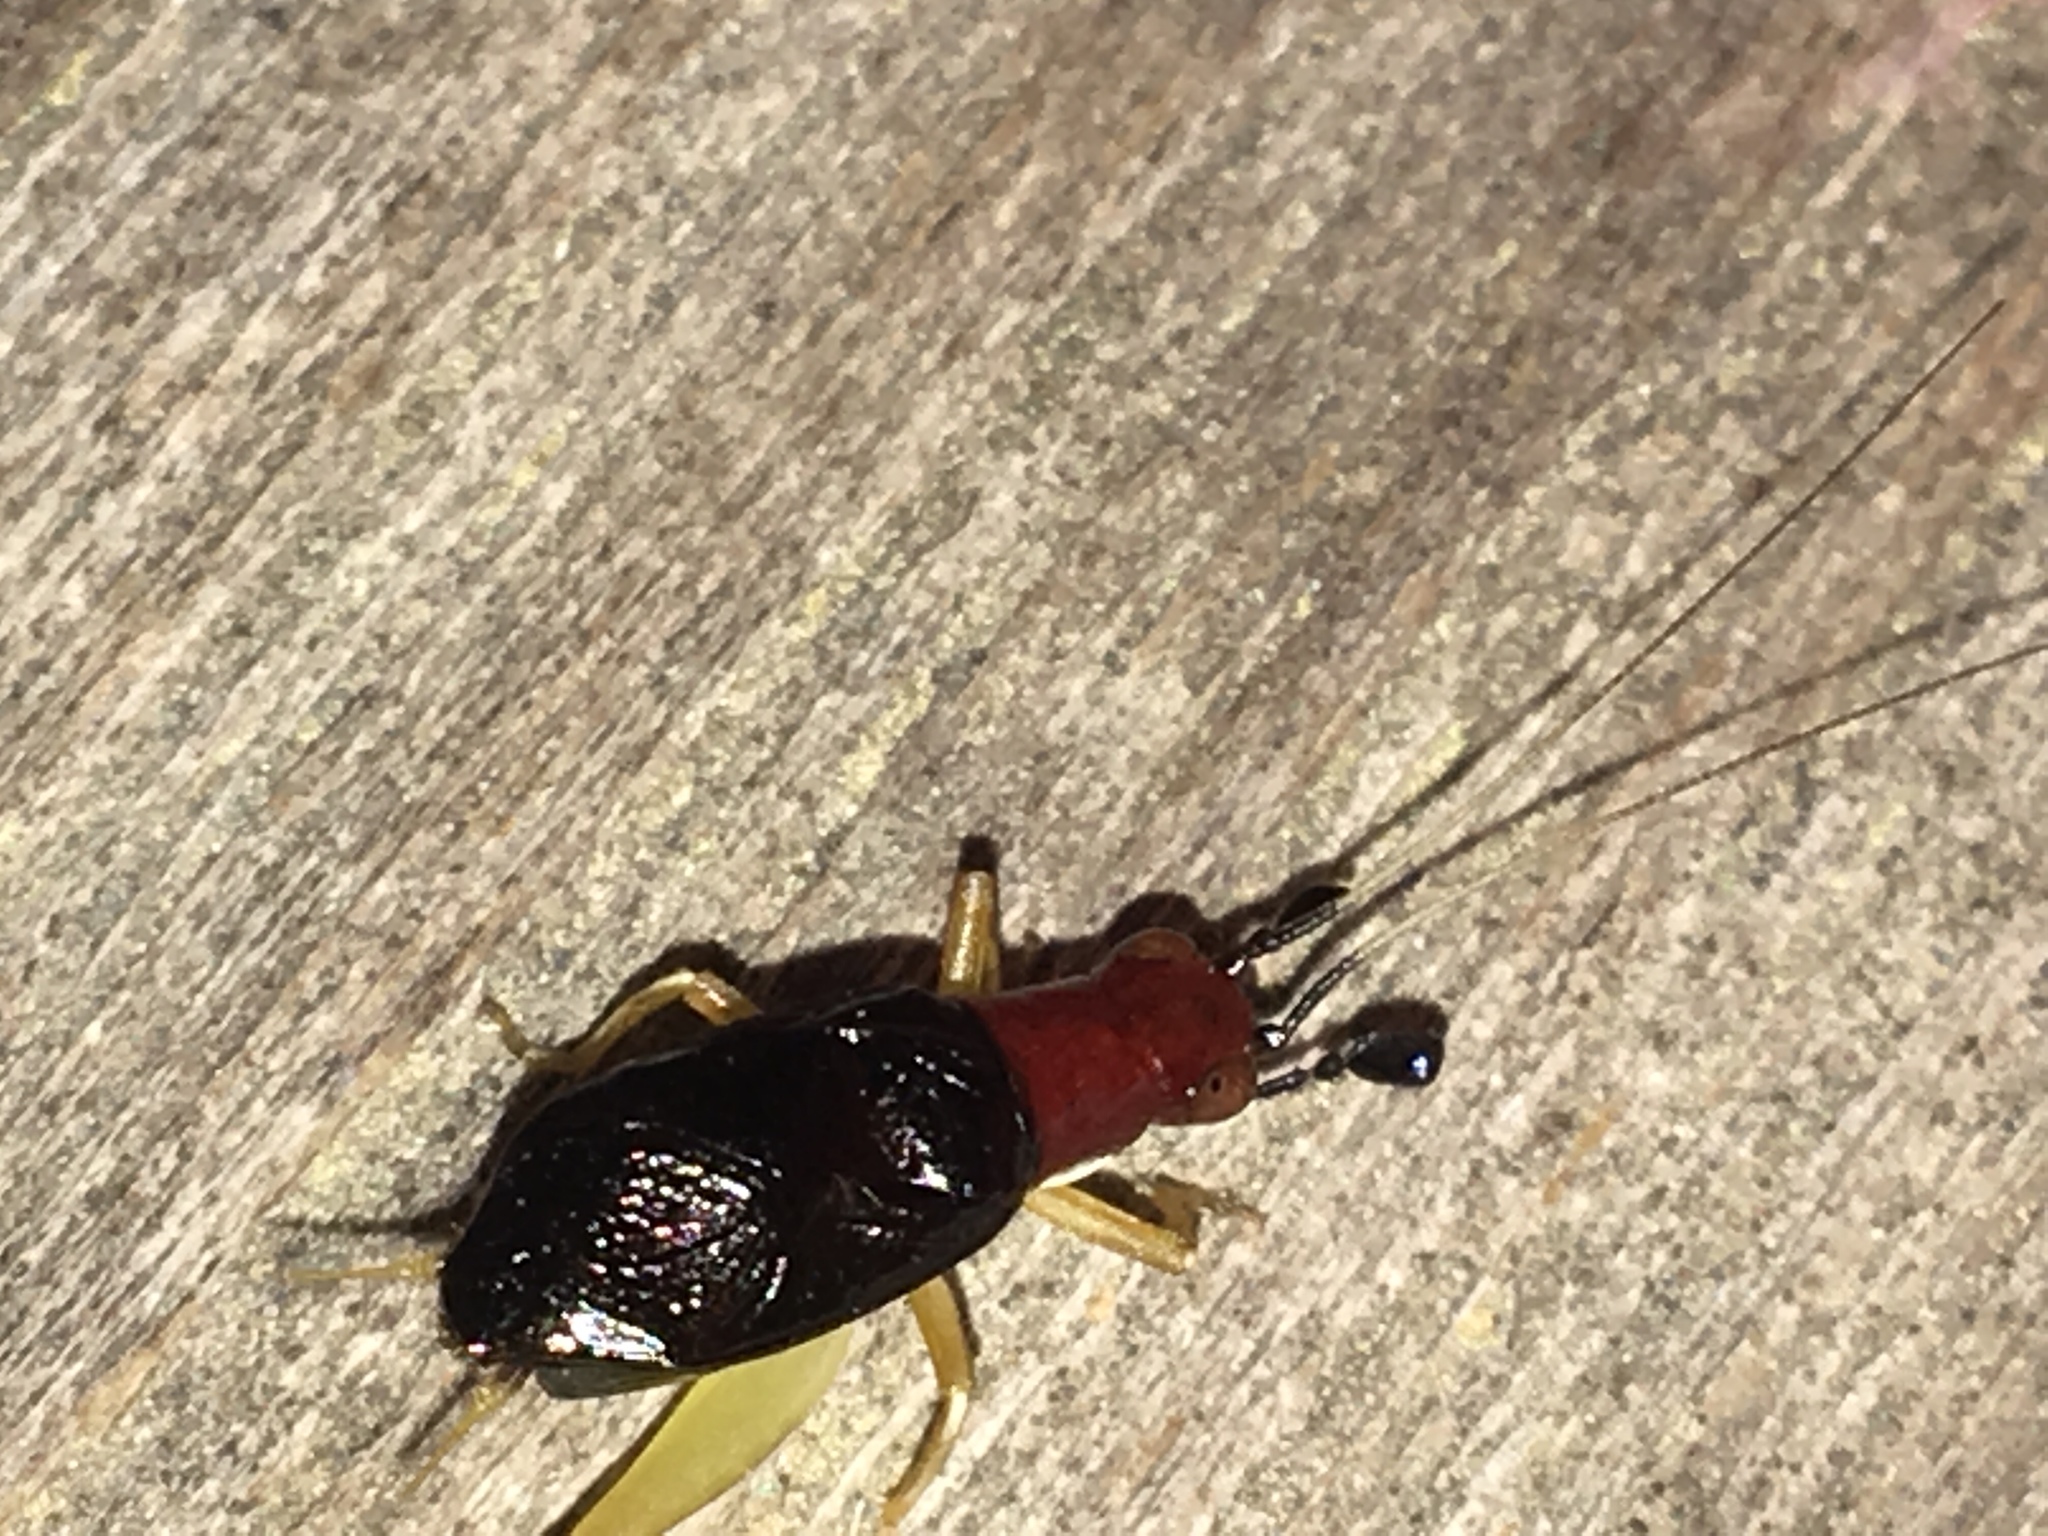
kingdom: Animalia
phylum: Arthropoda
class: Insecta
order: Orthoptera
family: Trigonidiidae
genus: Phyllopalpus
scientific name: Phyllopalpus pulchellus
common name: Handsome trig
